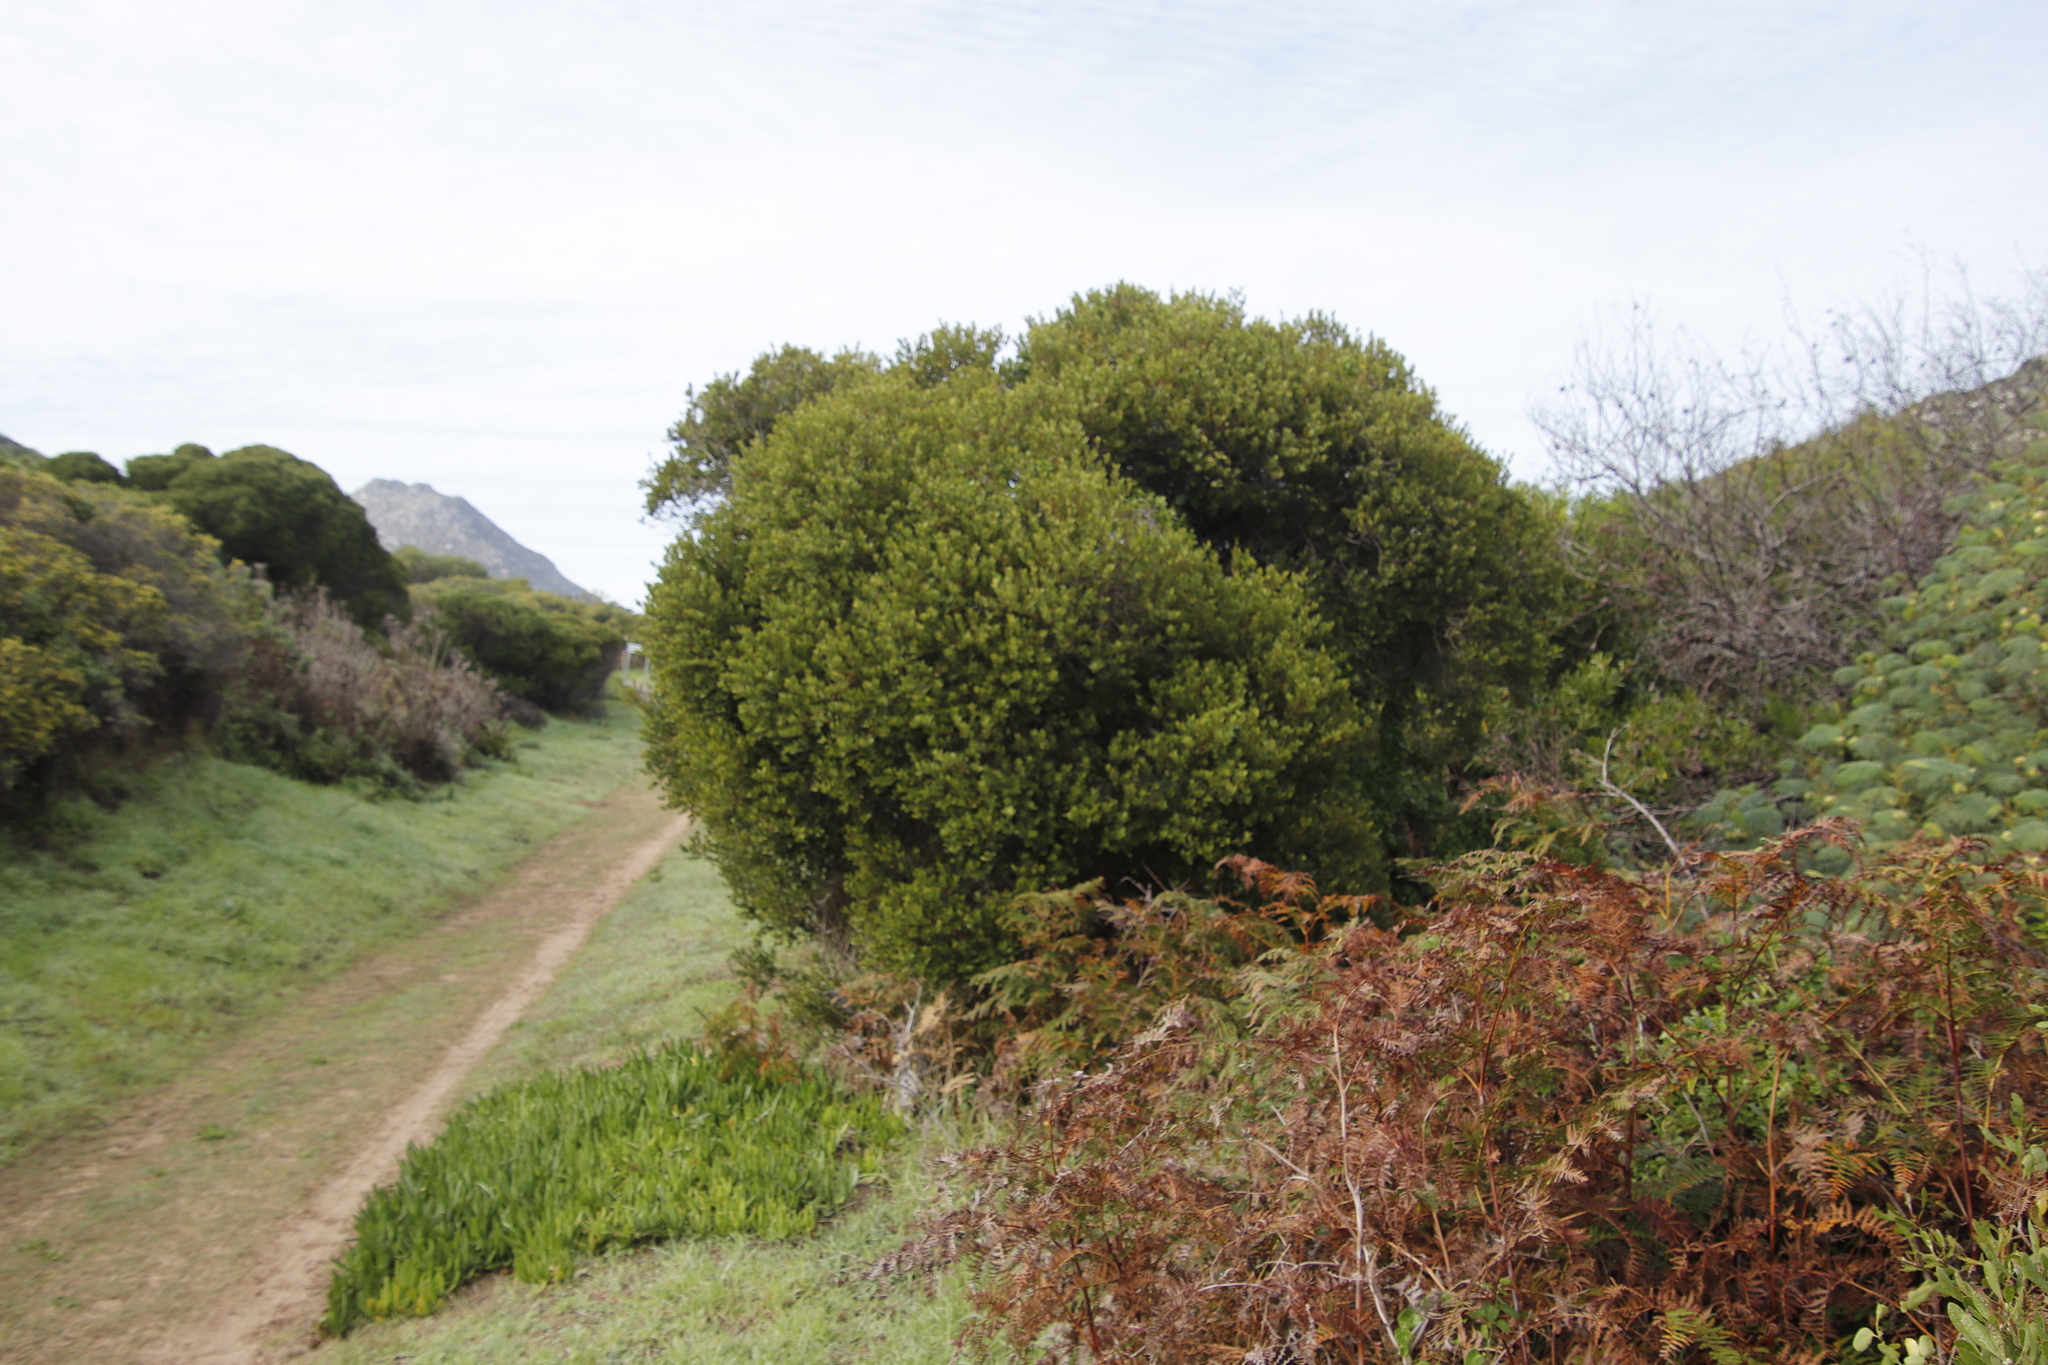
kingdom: Plantae
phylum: Tracheophyta
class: Magnoliopsida
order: Ericales
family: Ebenaceae
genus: Euclea
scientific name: Euclea racemosa
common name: Dune guarri
